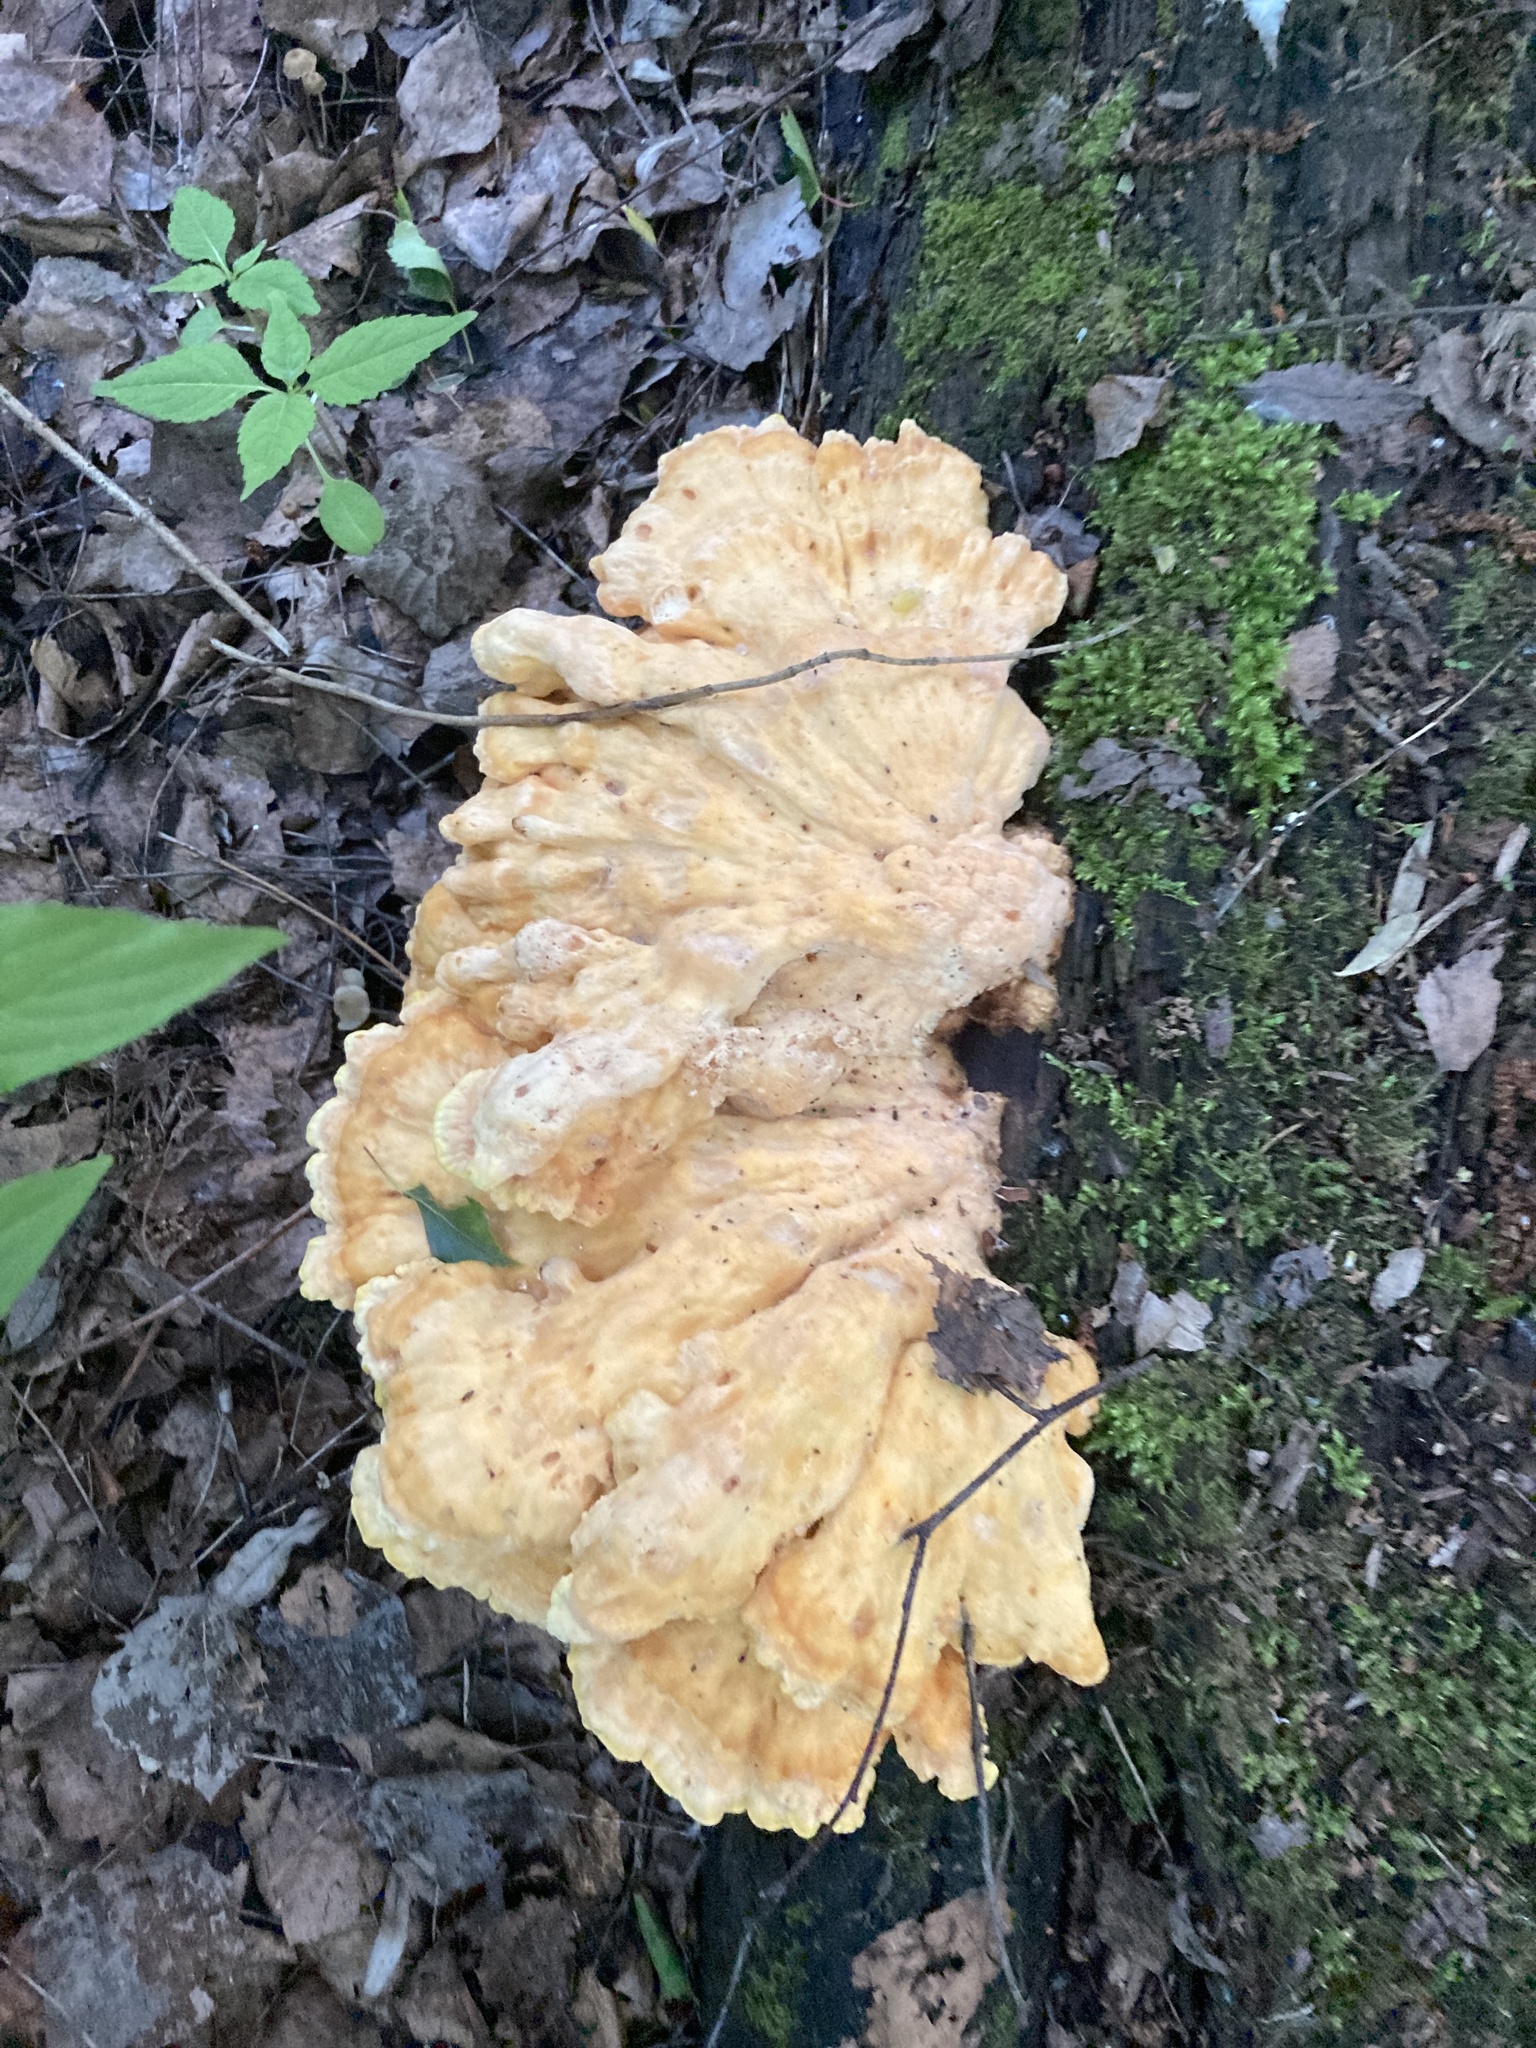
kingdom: Fungi
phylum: Basidiomycota
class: Agaricomycetes
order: Polyporales
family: Laetiporaceae
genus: Laetiporus
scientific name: Laetiporus sulphureus
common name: Chicken of the woods
